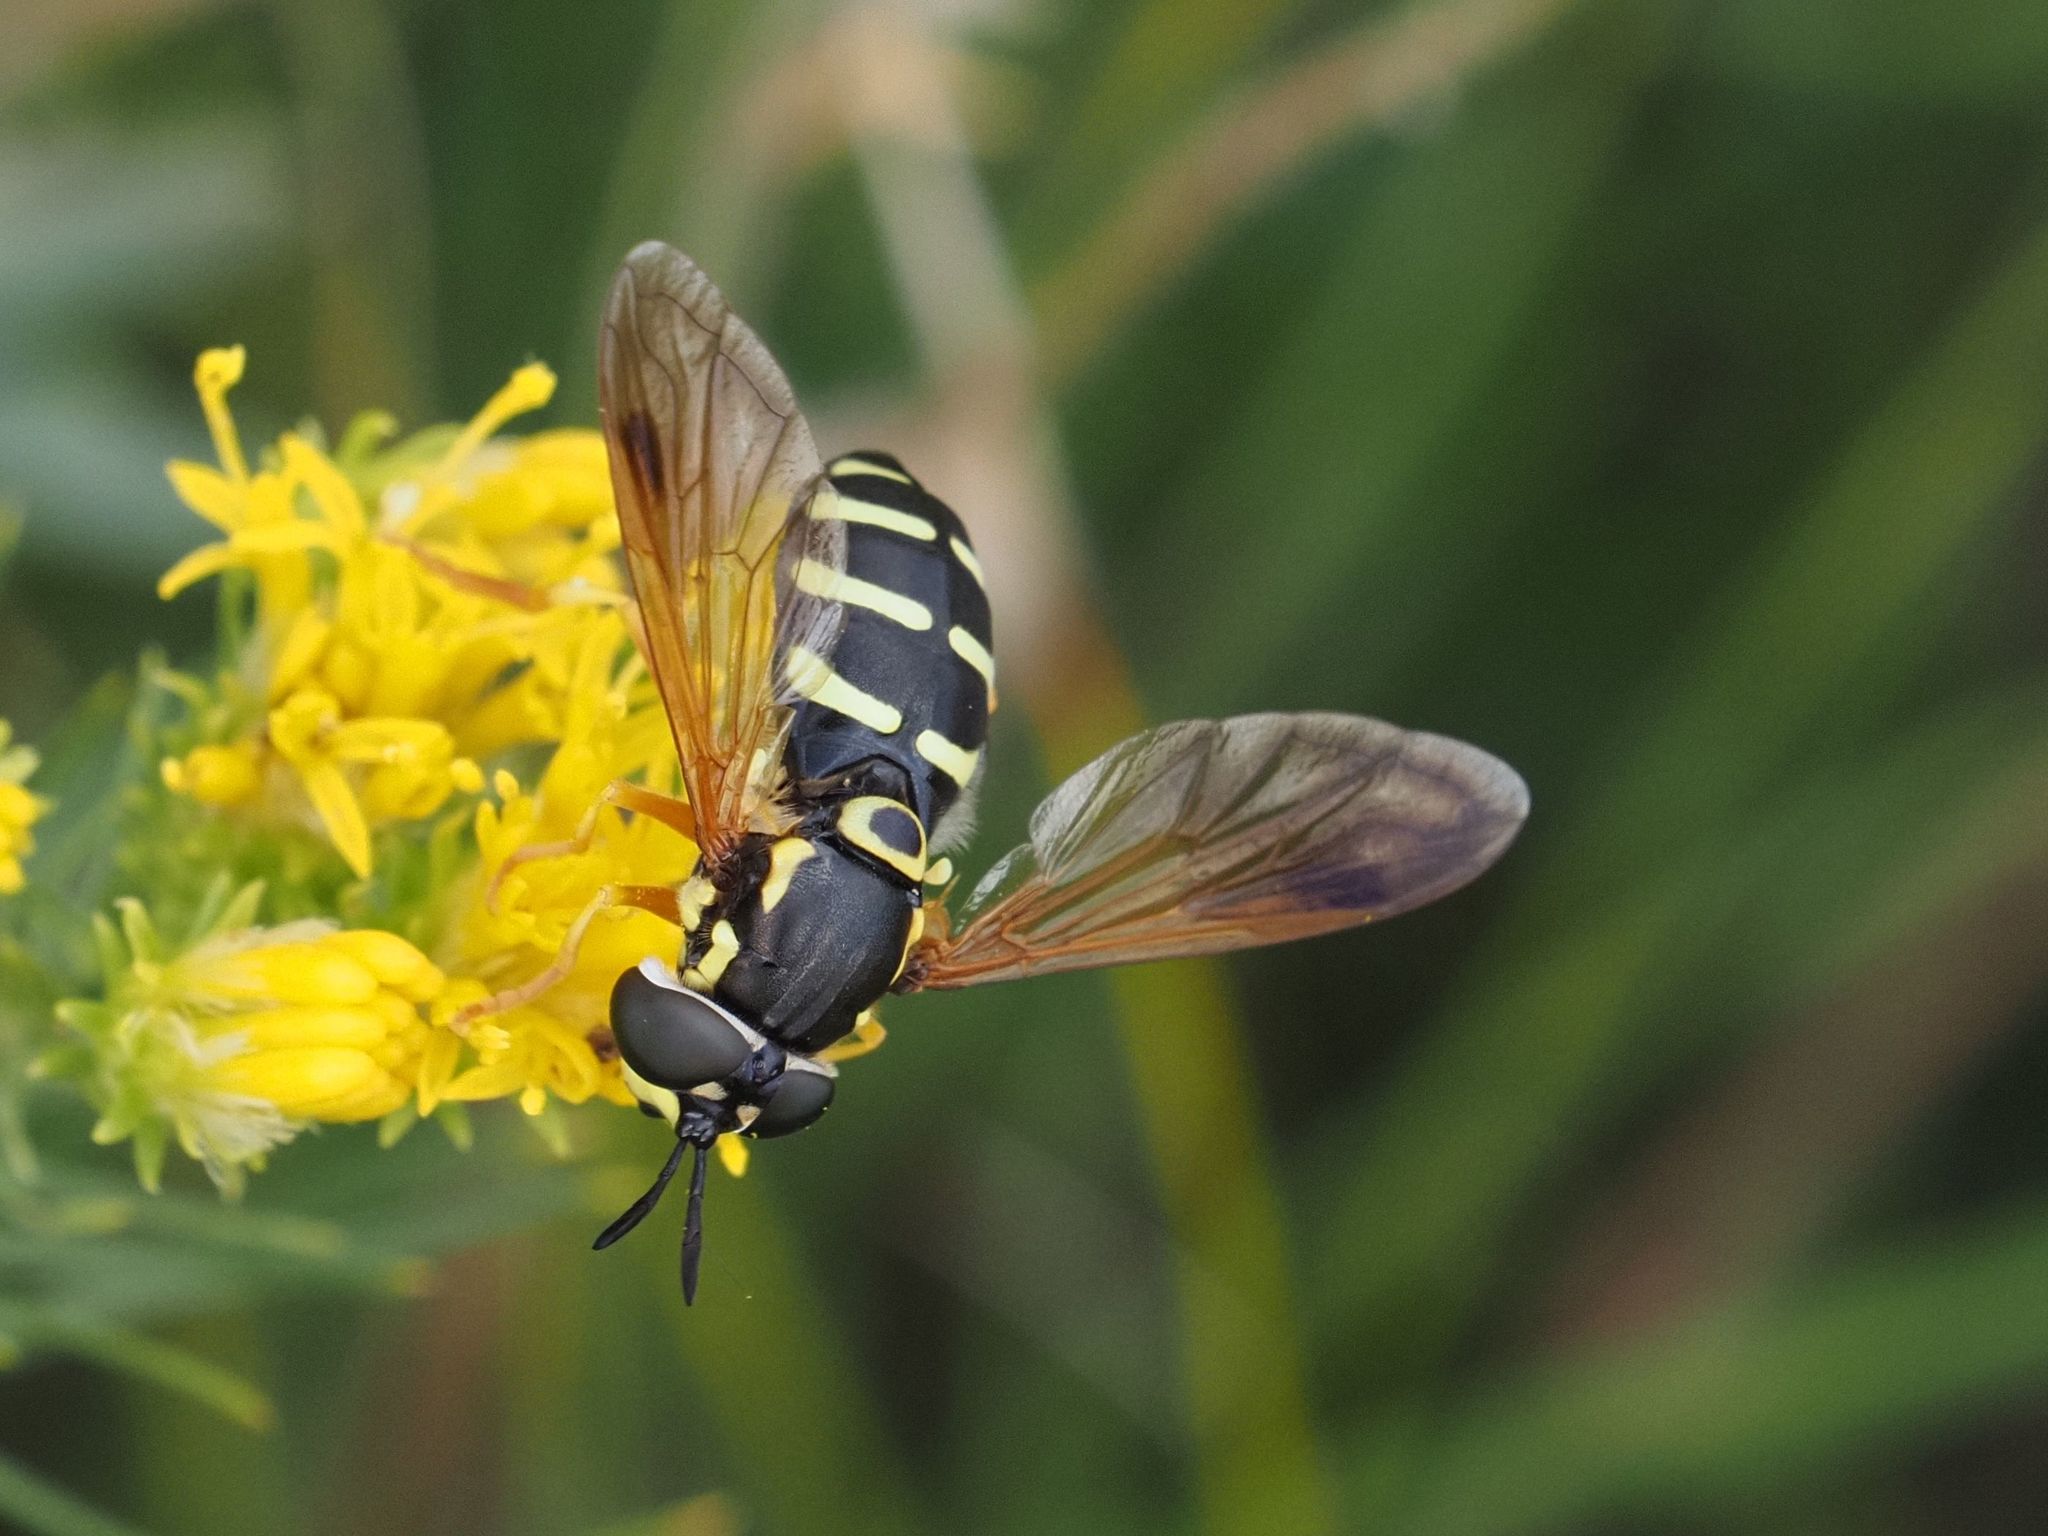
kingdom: Animalia
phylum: Arthropoda
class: Insecta
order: Diptera
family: Syrphidae
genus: Chrysotoxum
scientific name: Chrysotoxum festivum
